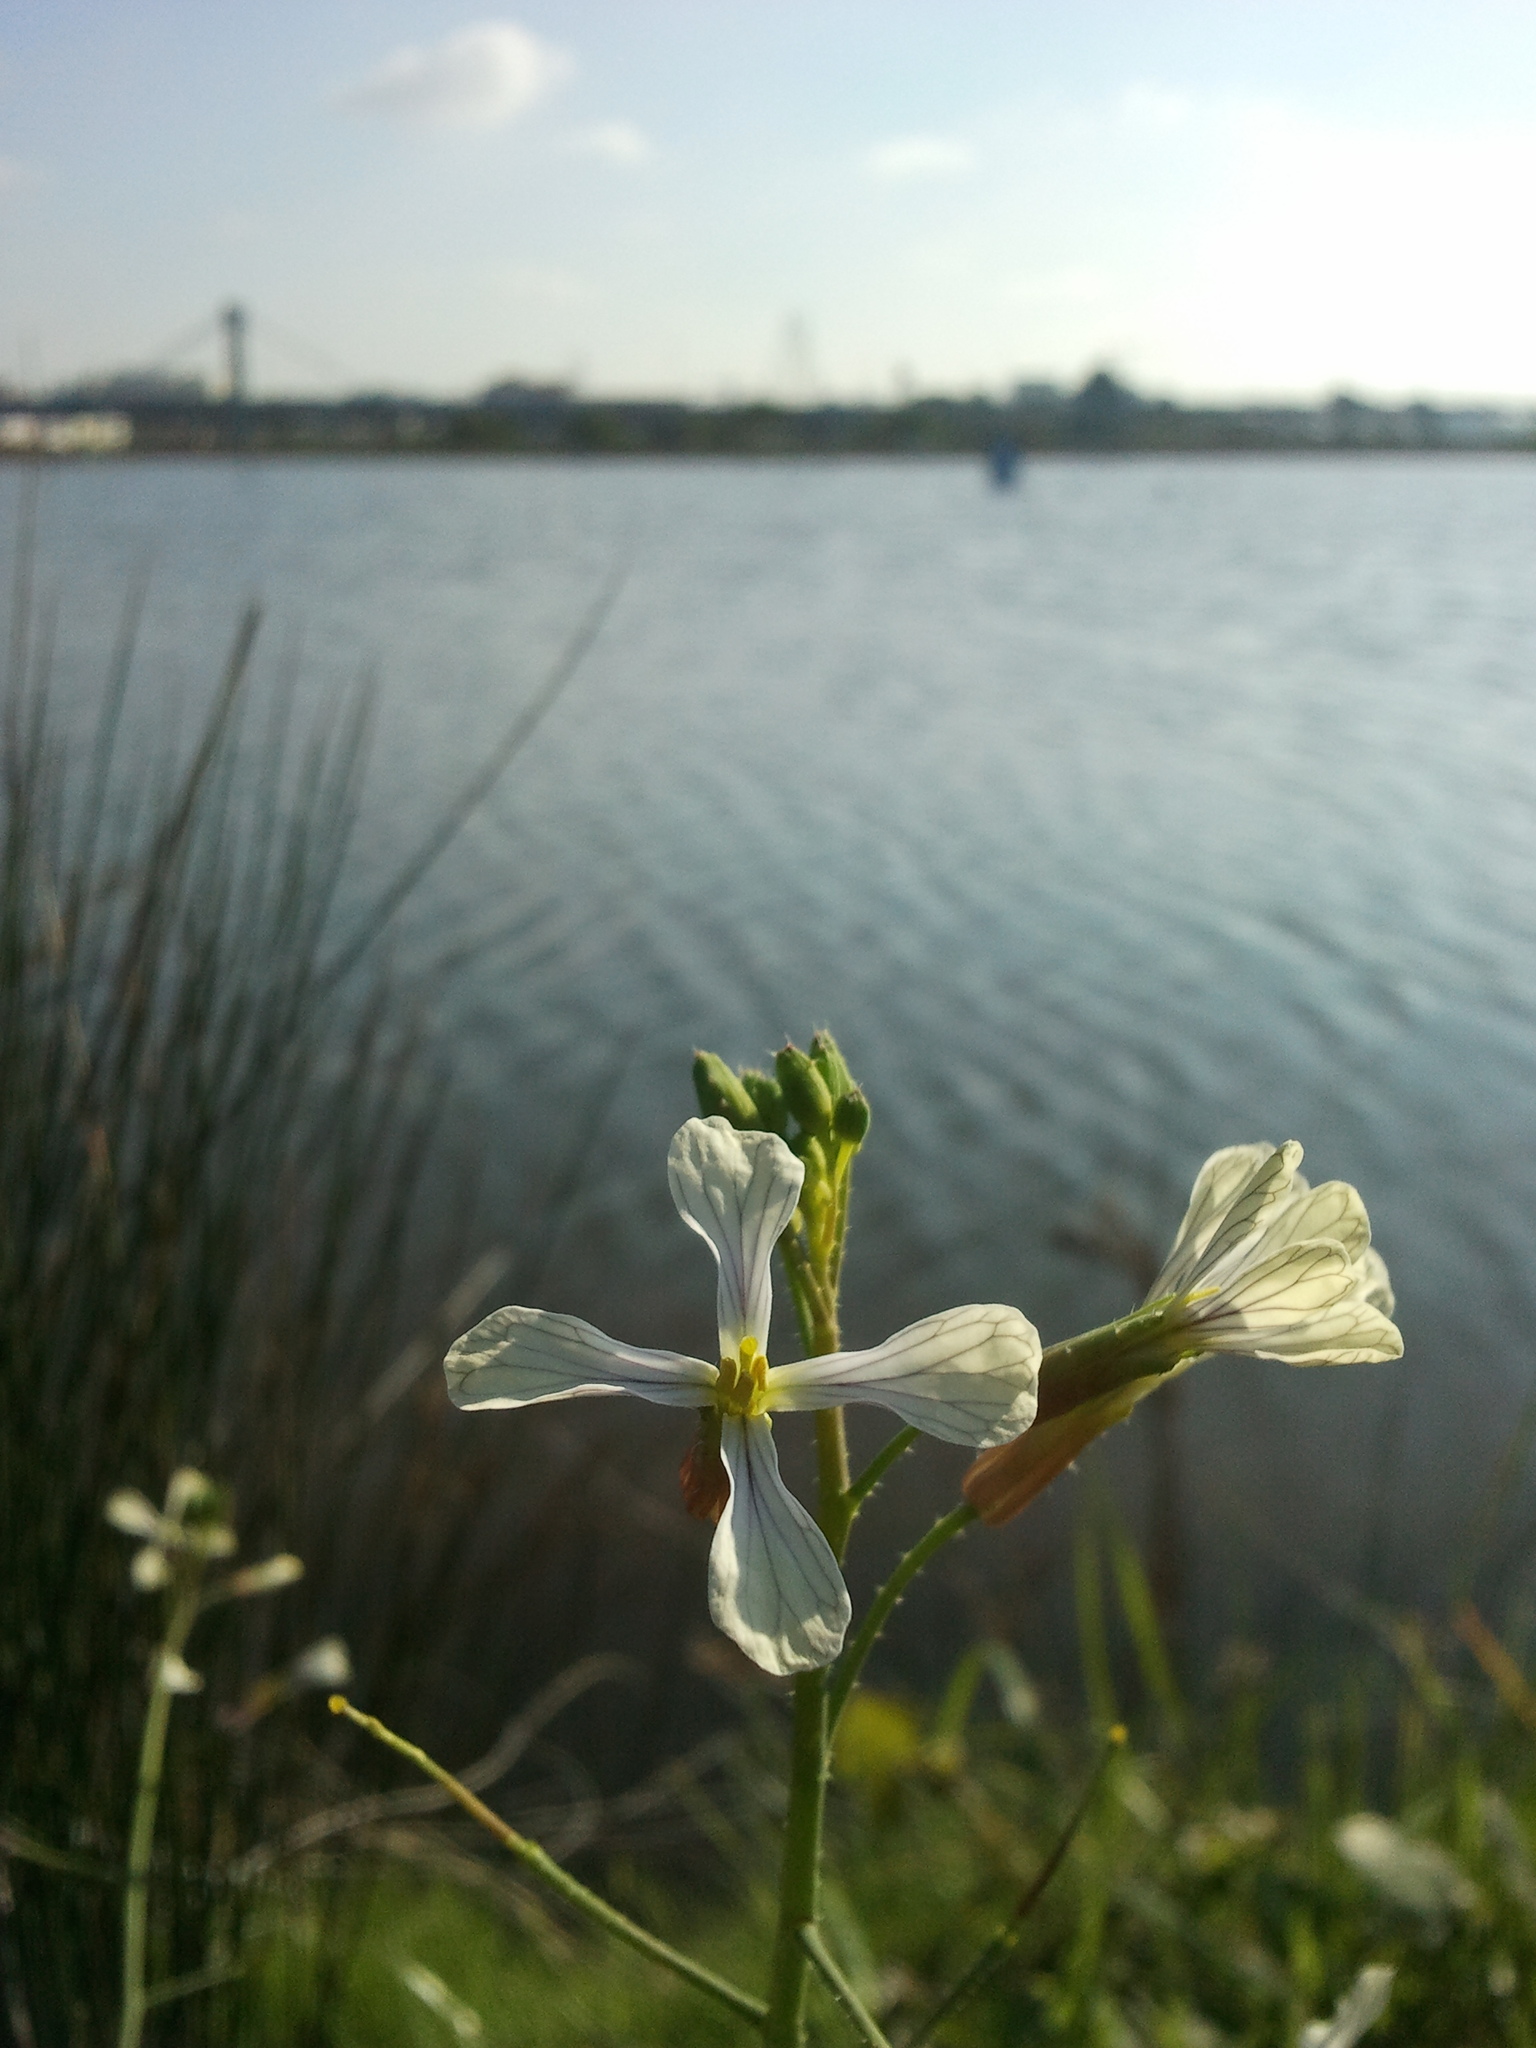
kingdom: Plantae
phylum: Tracheophyta
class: Magnoliopsida
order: Brassicales
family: Brassicaceae
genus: Raphanus
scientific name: Raphanus raphanistrum
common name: Wild radish
